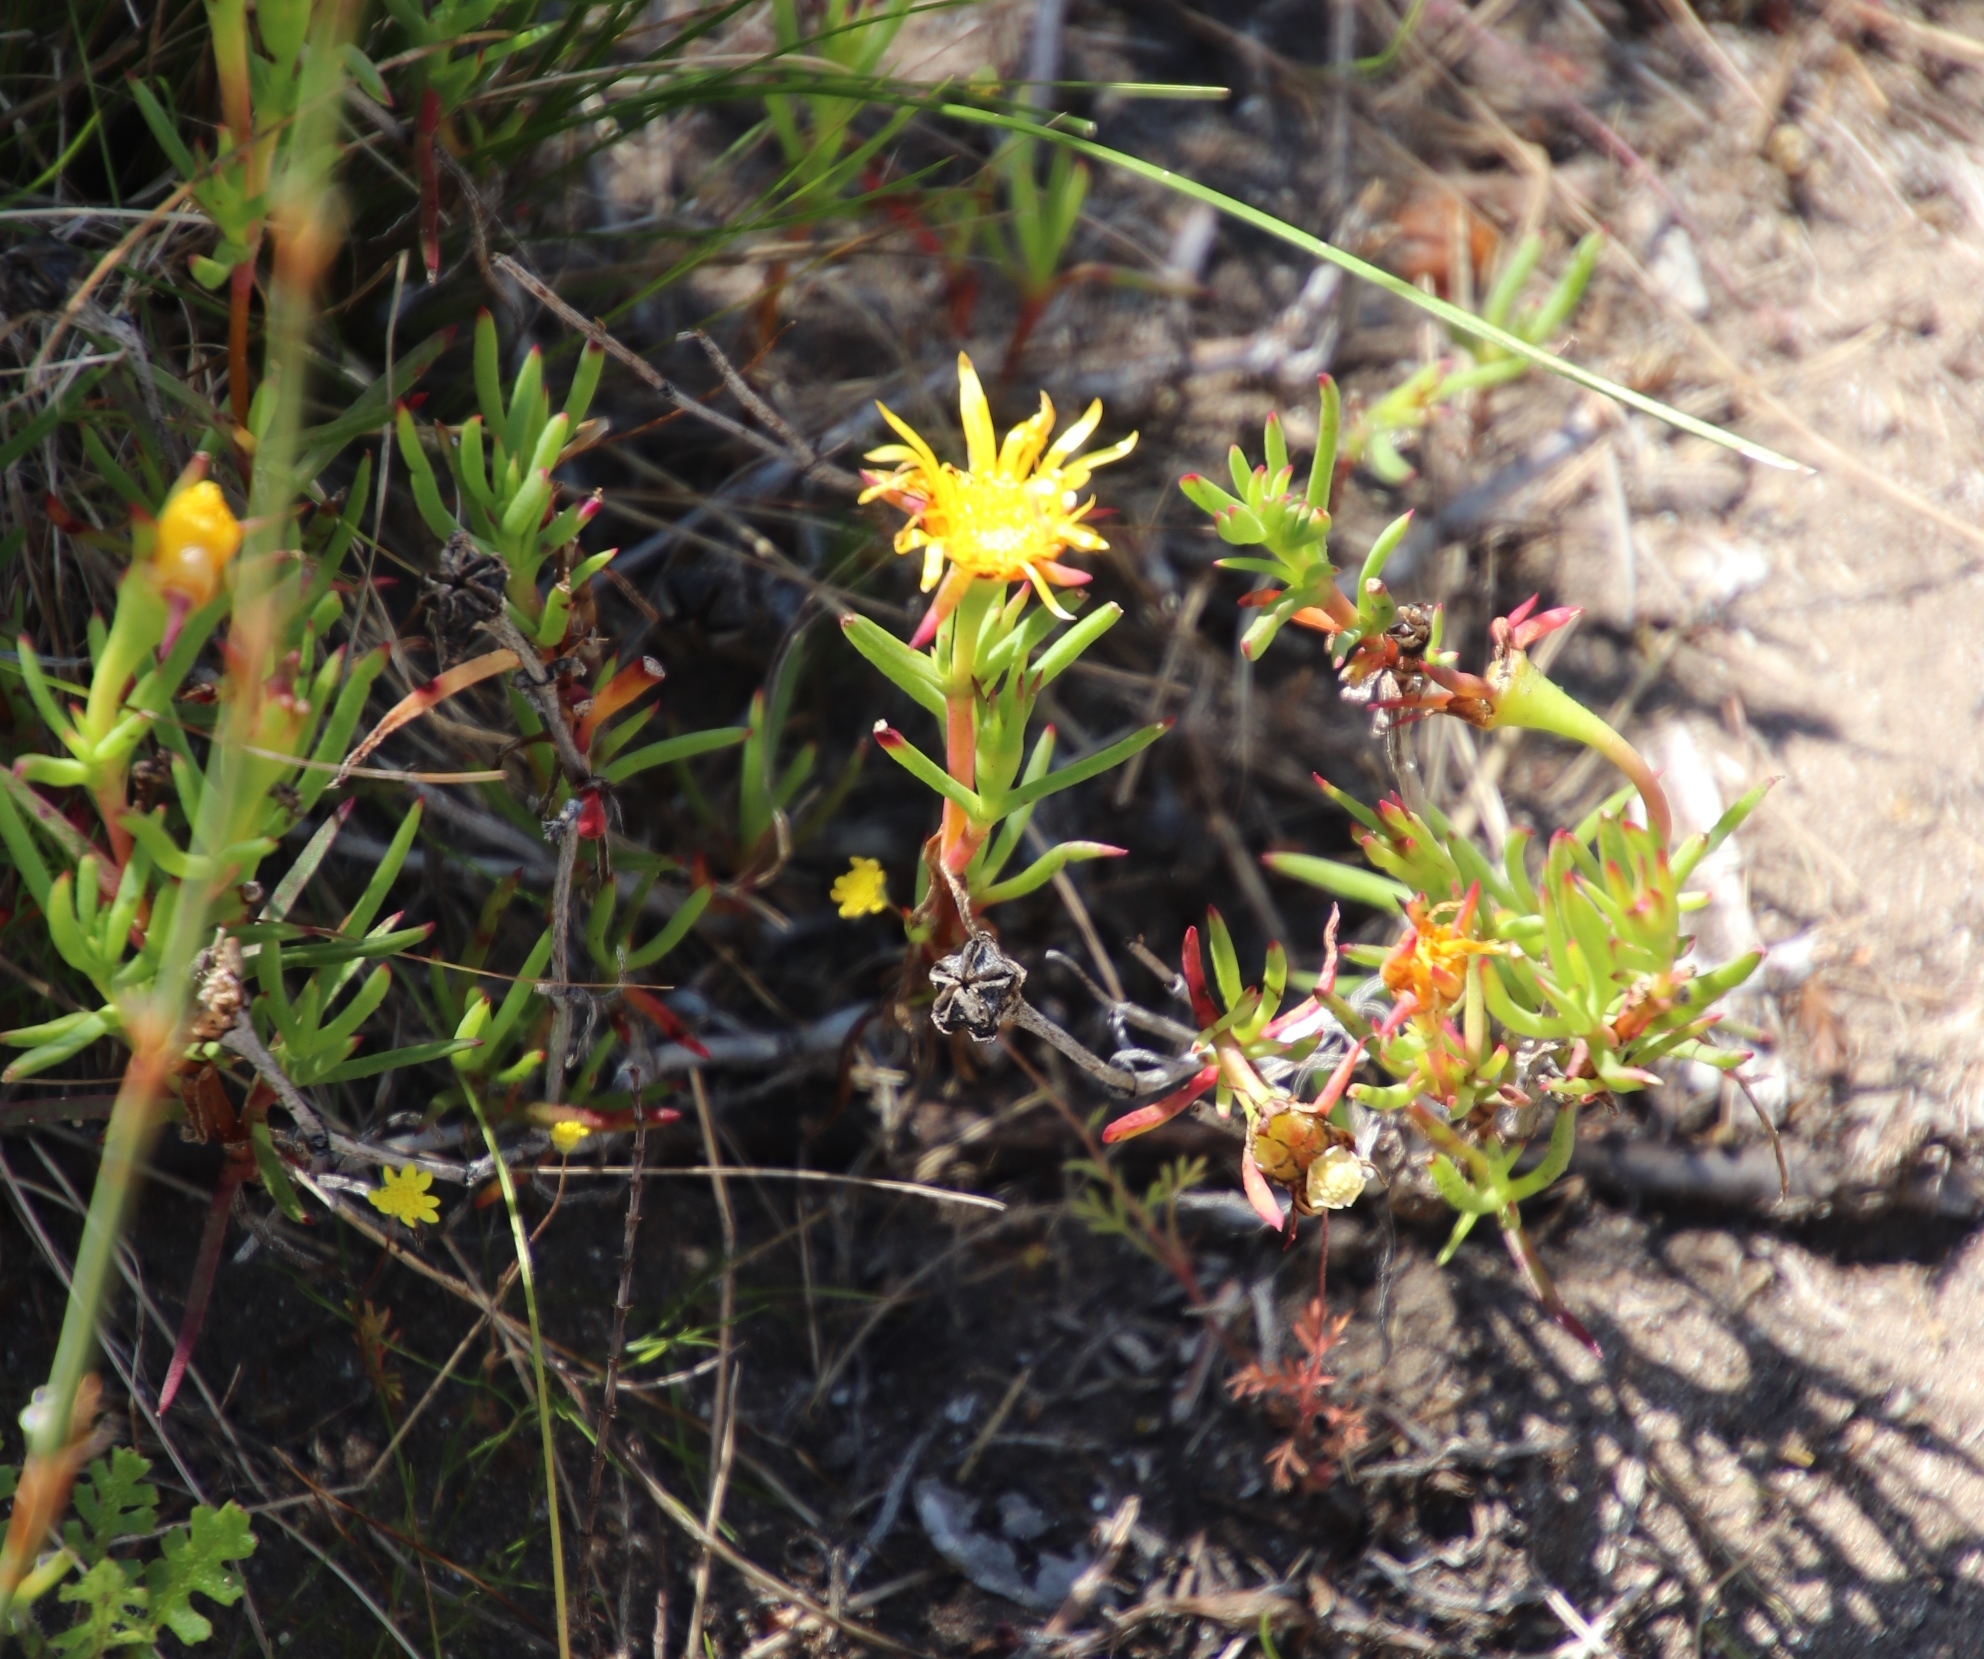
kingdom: Plantae
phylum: Tracheophyta
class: Magnoliopsida
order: Caryophyllales
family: Aizoaceae
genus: Lampranthus
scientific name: Lampranthus bicolor
